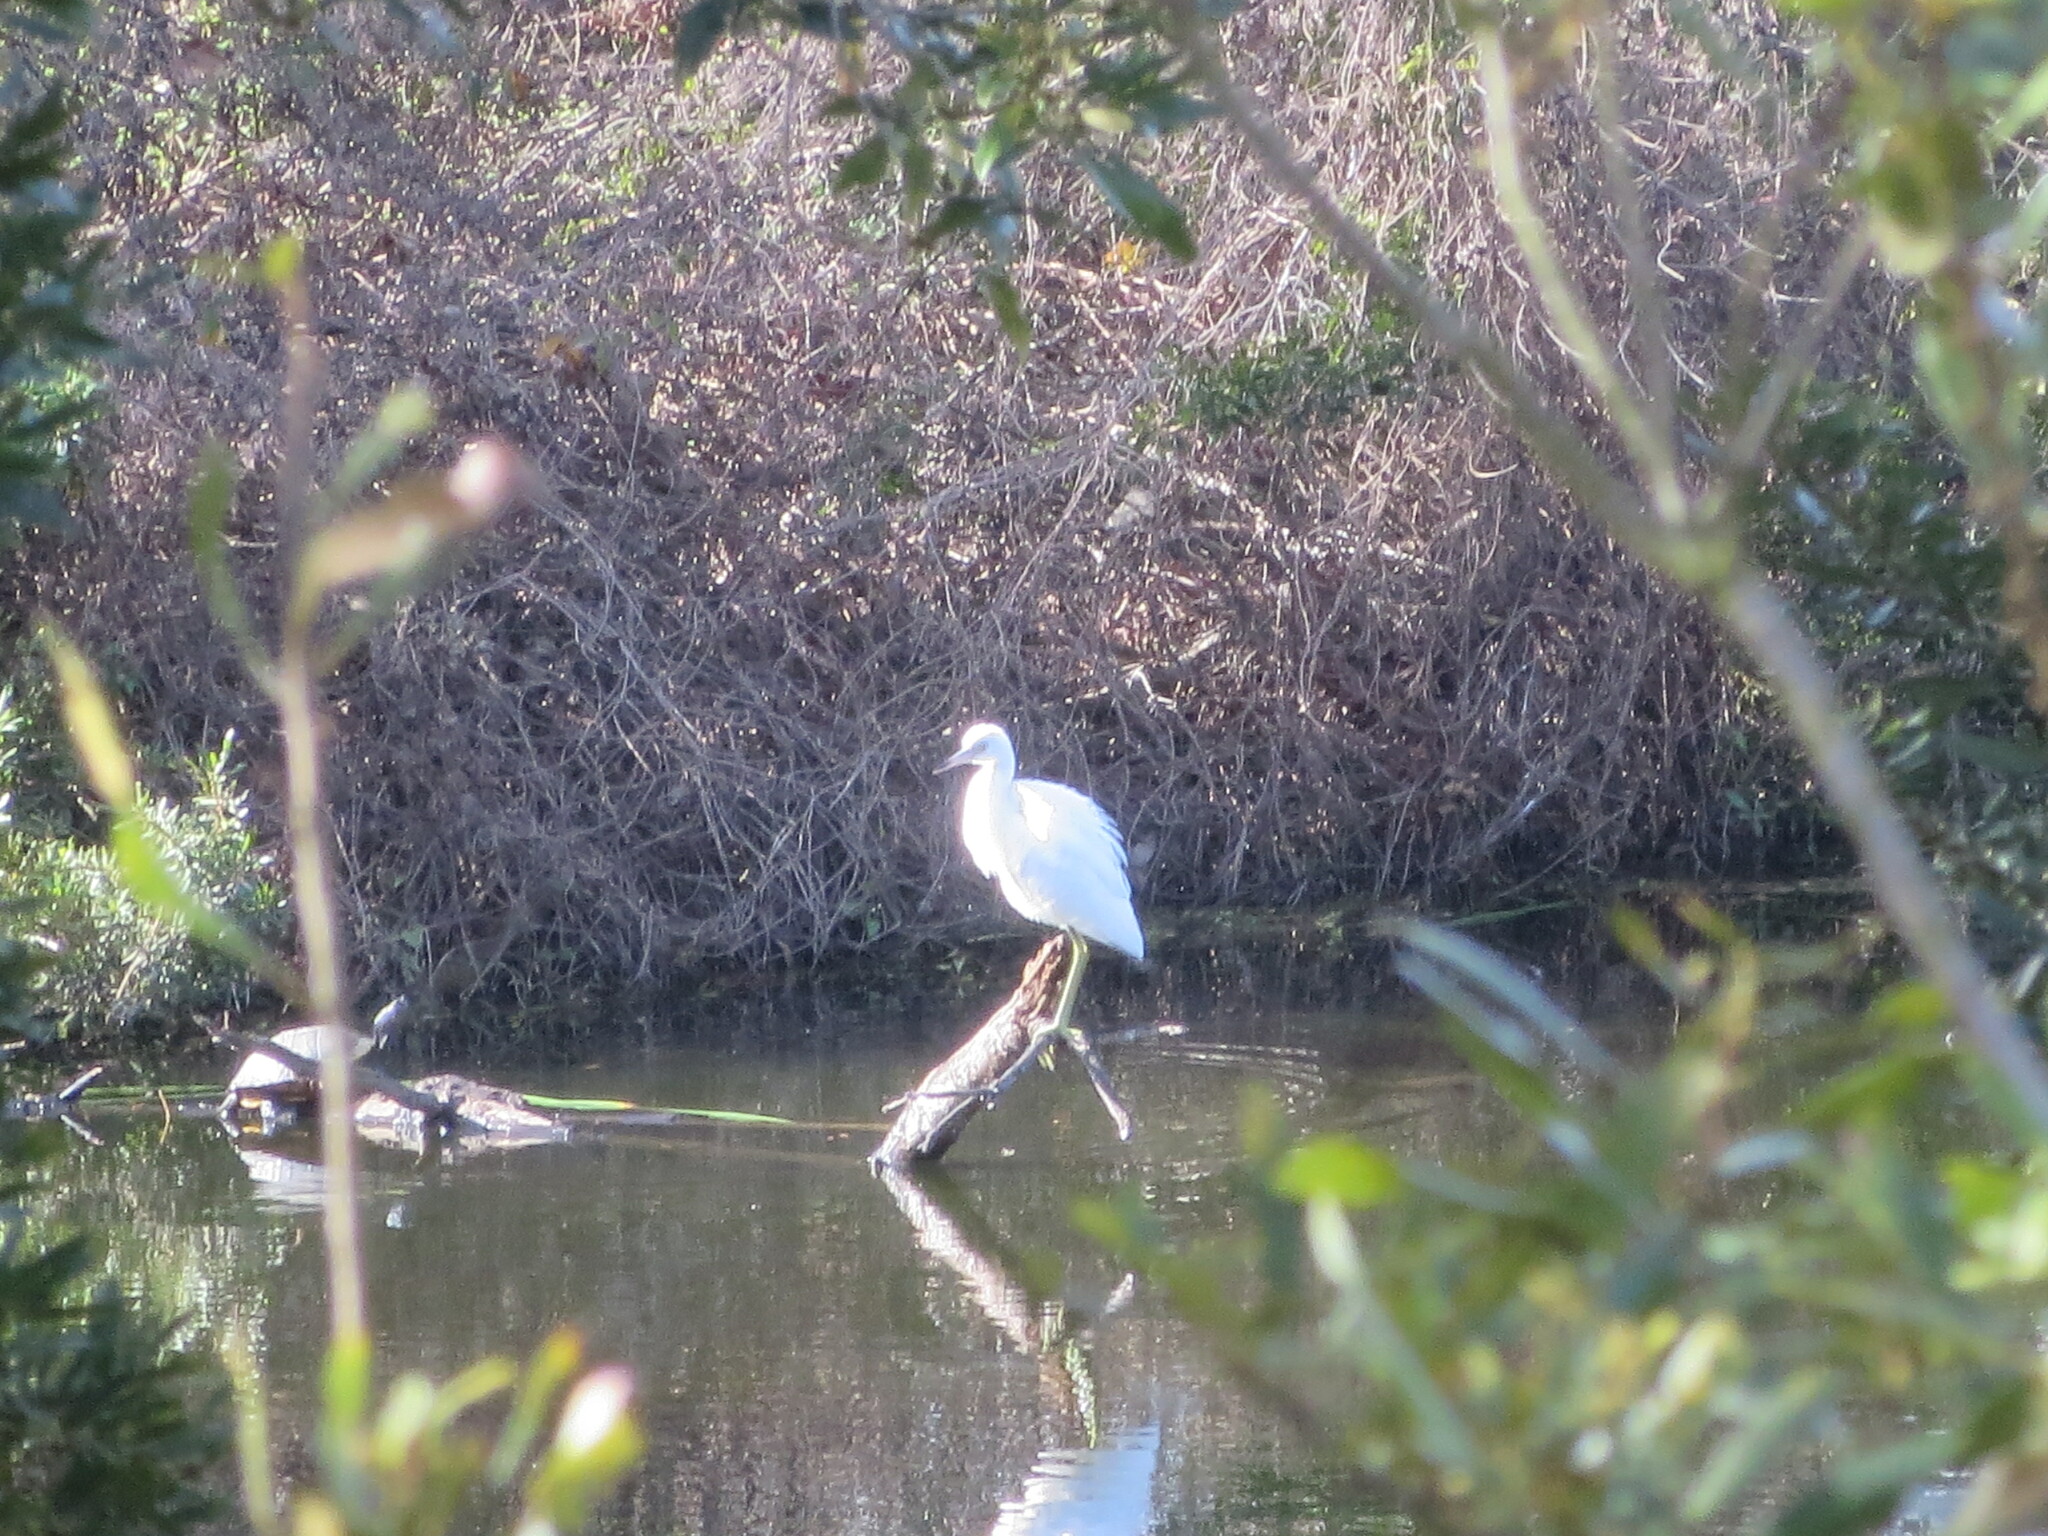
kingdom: Animalia
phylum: Chordata
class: Aves
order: Pelecaniformes
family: Ardeidae
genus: Egretta
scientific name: Egretta caerulea
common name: Little blue heron
